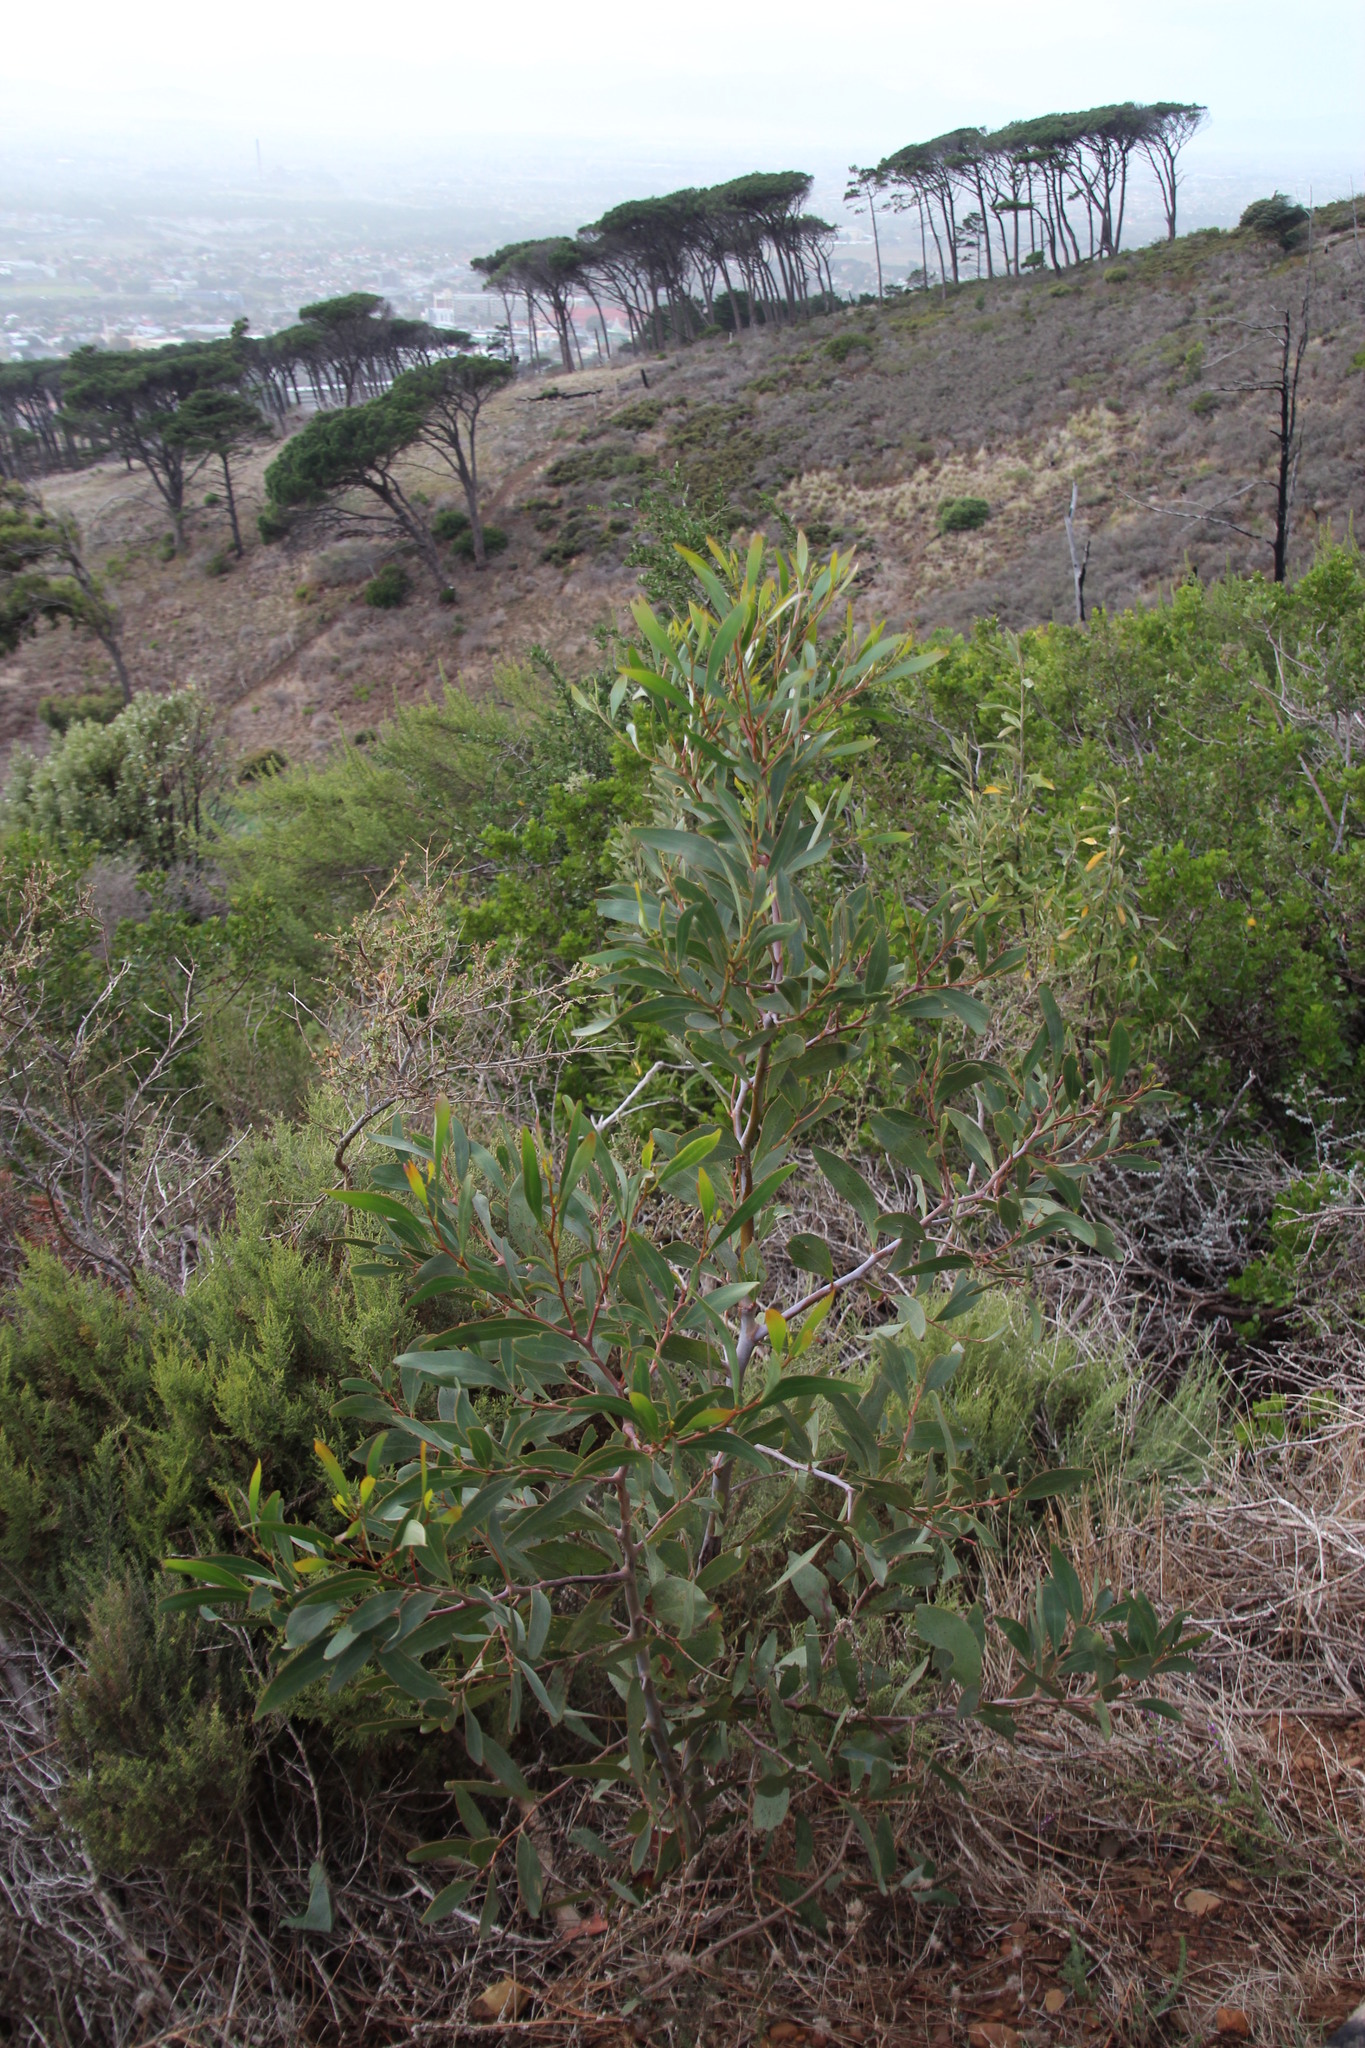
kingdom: Plantae
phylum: Tracheophyta
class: Magnoliopsida
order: Fabales
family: Fabaceae
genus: Acacia
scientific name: Acacia pycnantha
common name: Golden wattle
